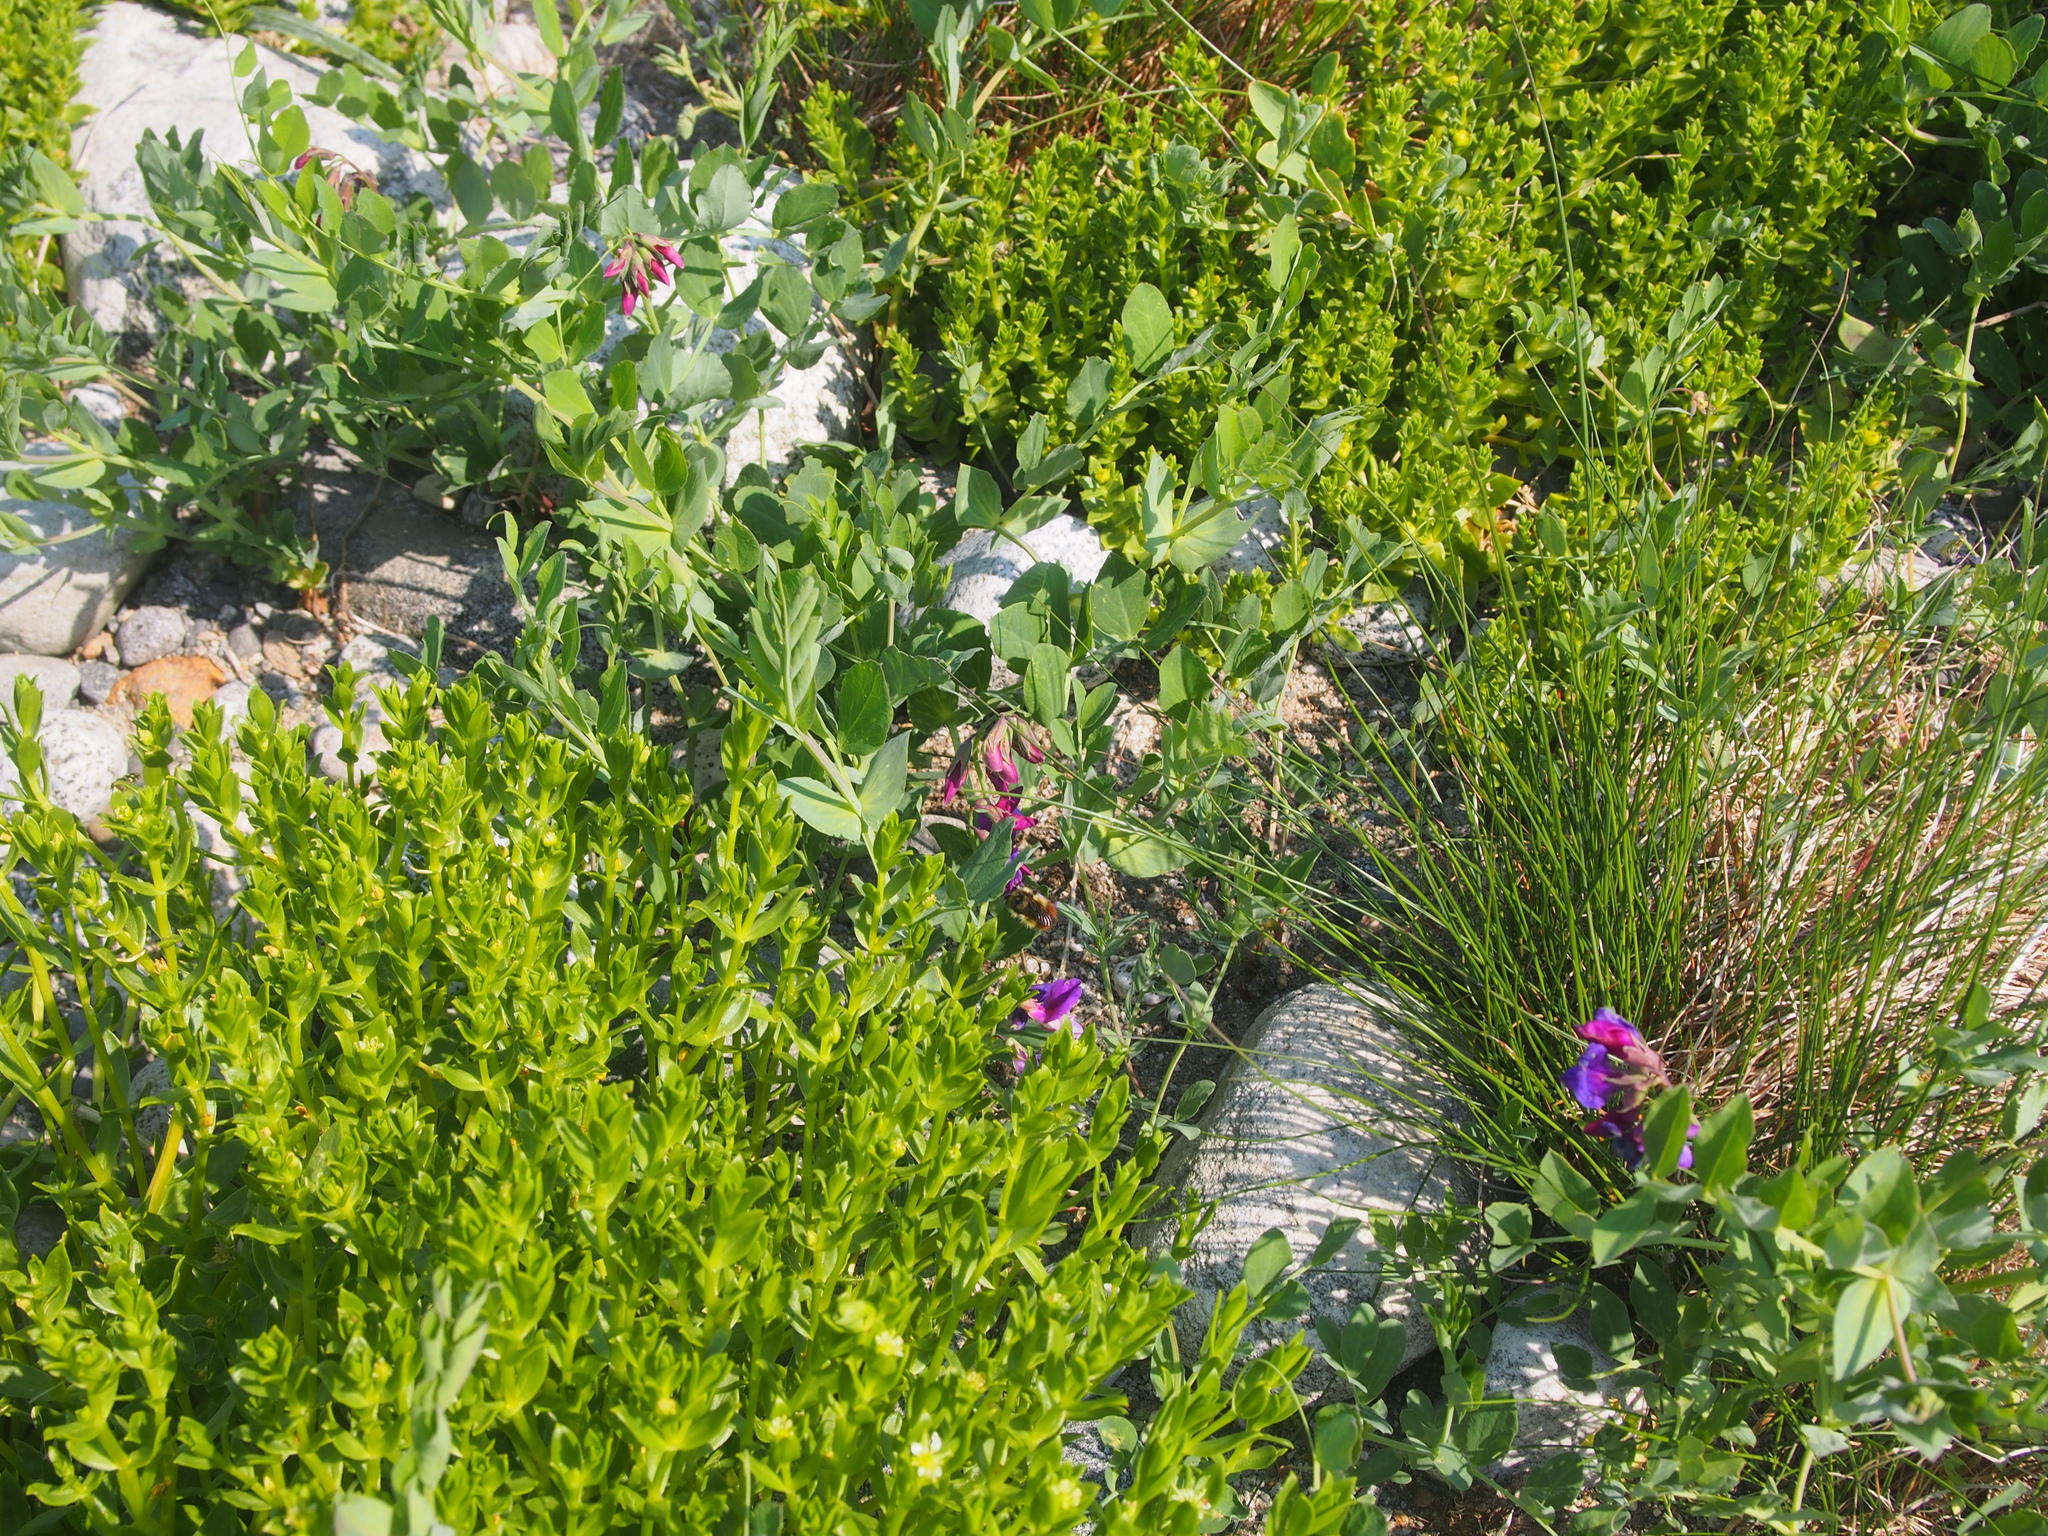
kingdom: Plantae
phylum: Tracheophyta
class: Magnoliopsida
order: Fabales
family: Fabaceae
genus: Lathyrus
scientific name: Lathyrus japonicus
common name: Sea pea
